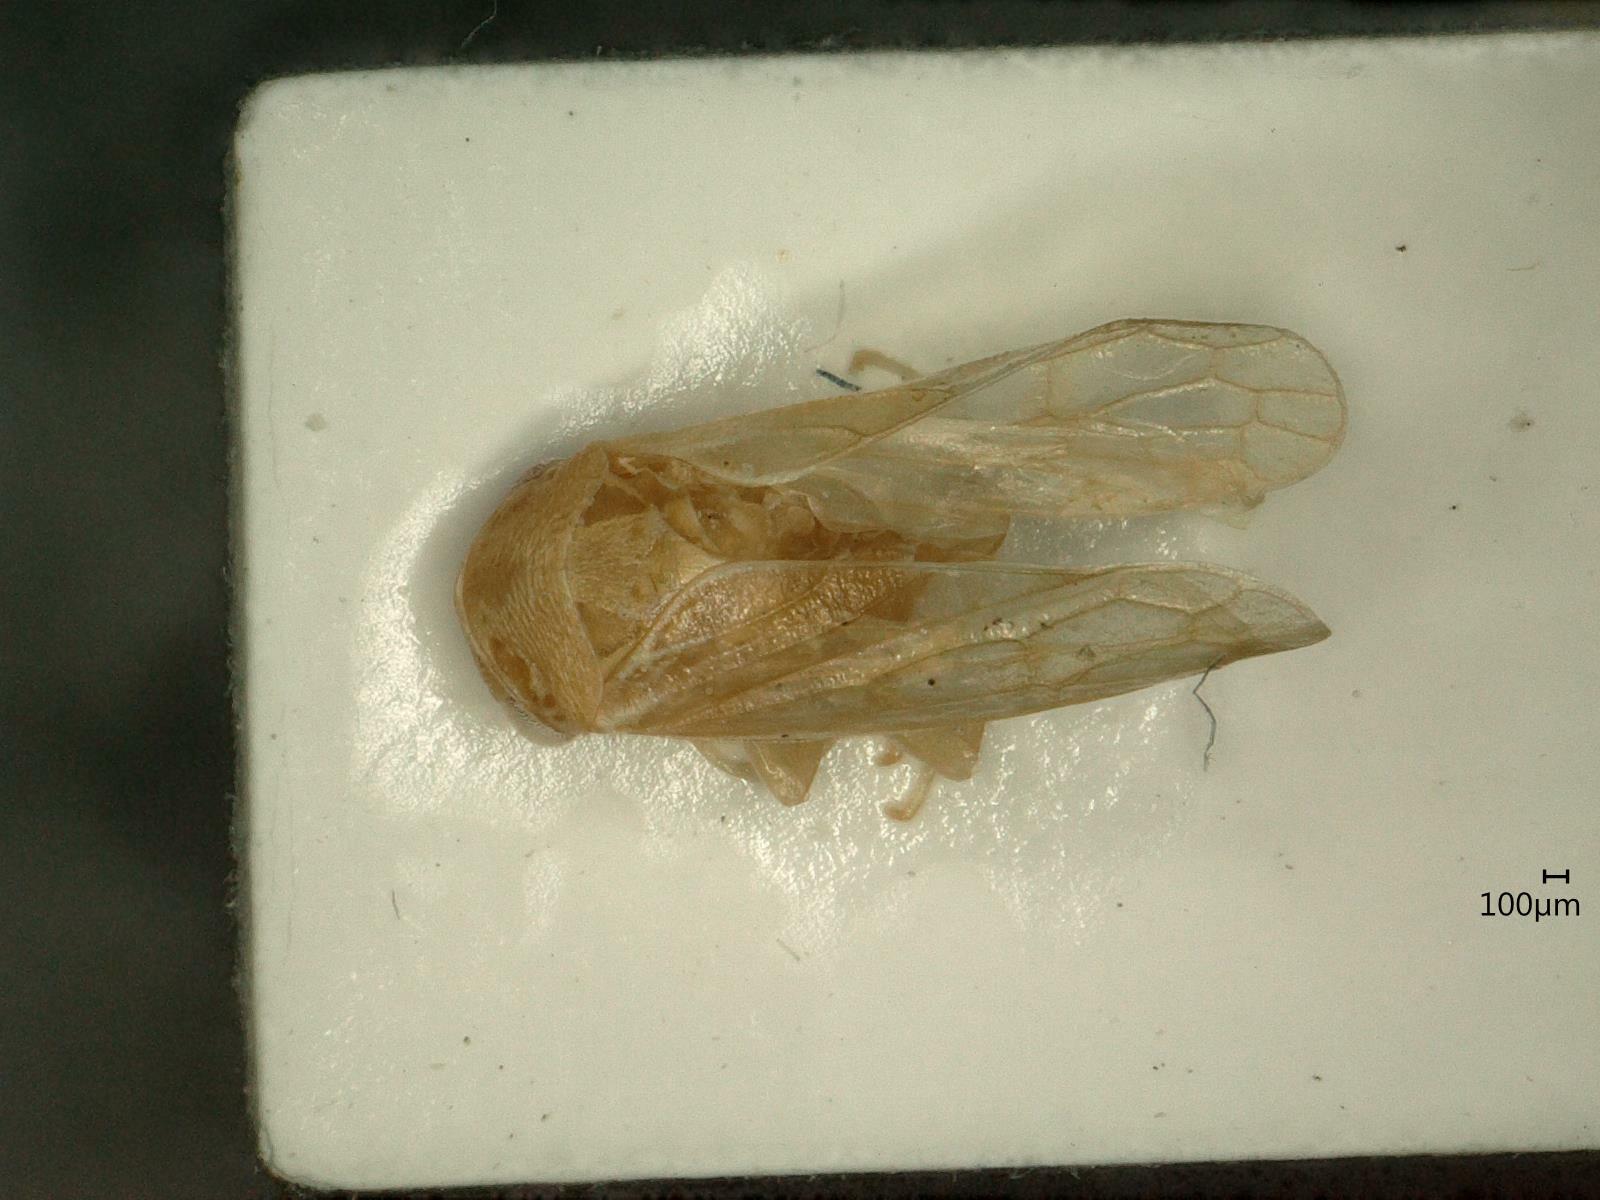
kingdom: Animalia
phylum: Arthropoda
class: Insecta
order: Hemiptera
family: Cicadellidae
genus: Oncopsis
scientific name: Oncopsis appendiculata
